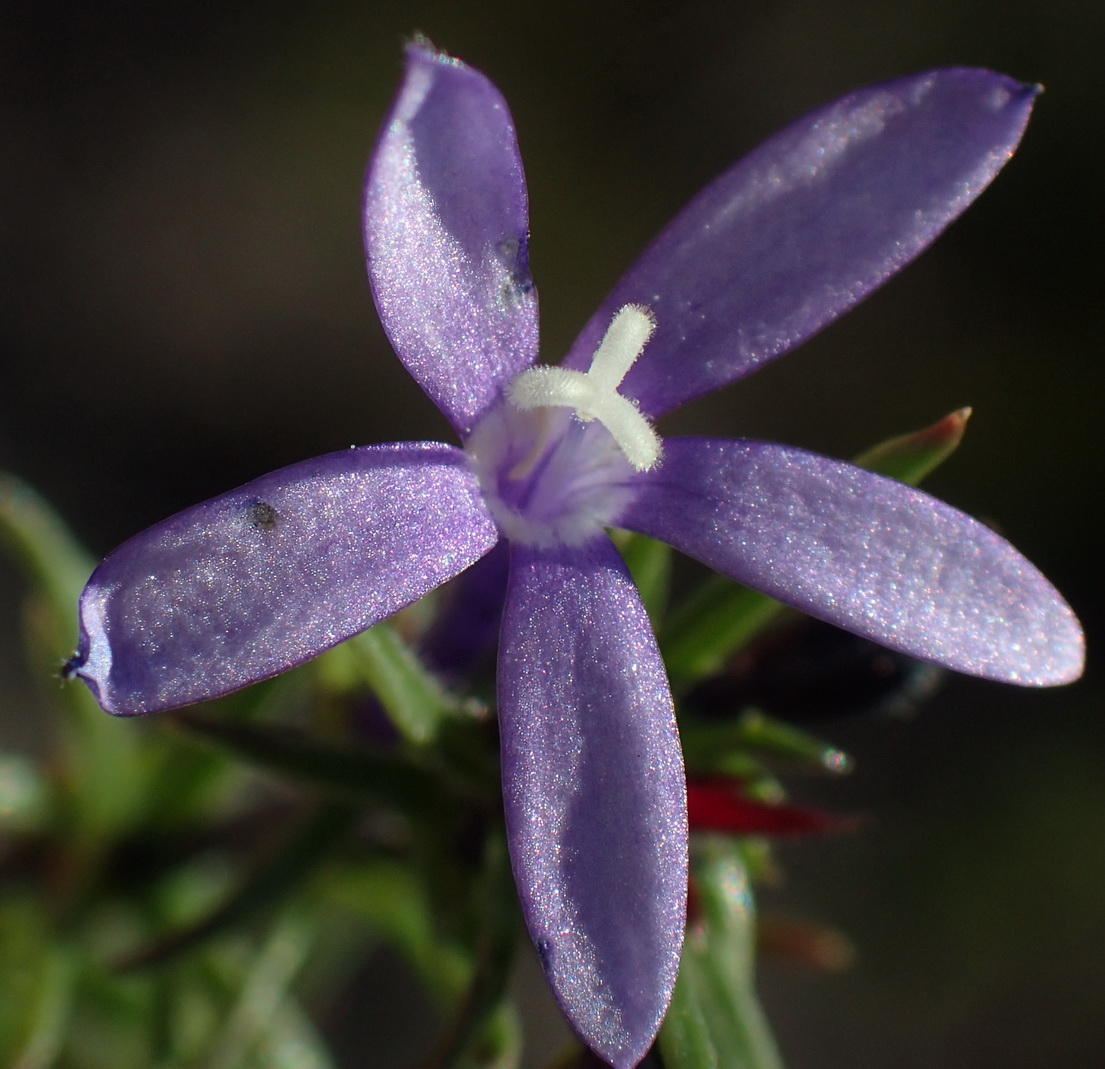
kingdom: Plantae
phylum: Tracheophyta
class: Magnoliopsida
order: Asterales
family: Campanulaceae
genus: Theilera
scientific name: Theilera guthriei
